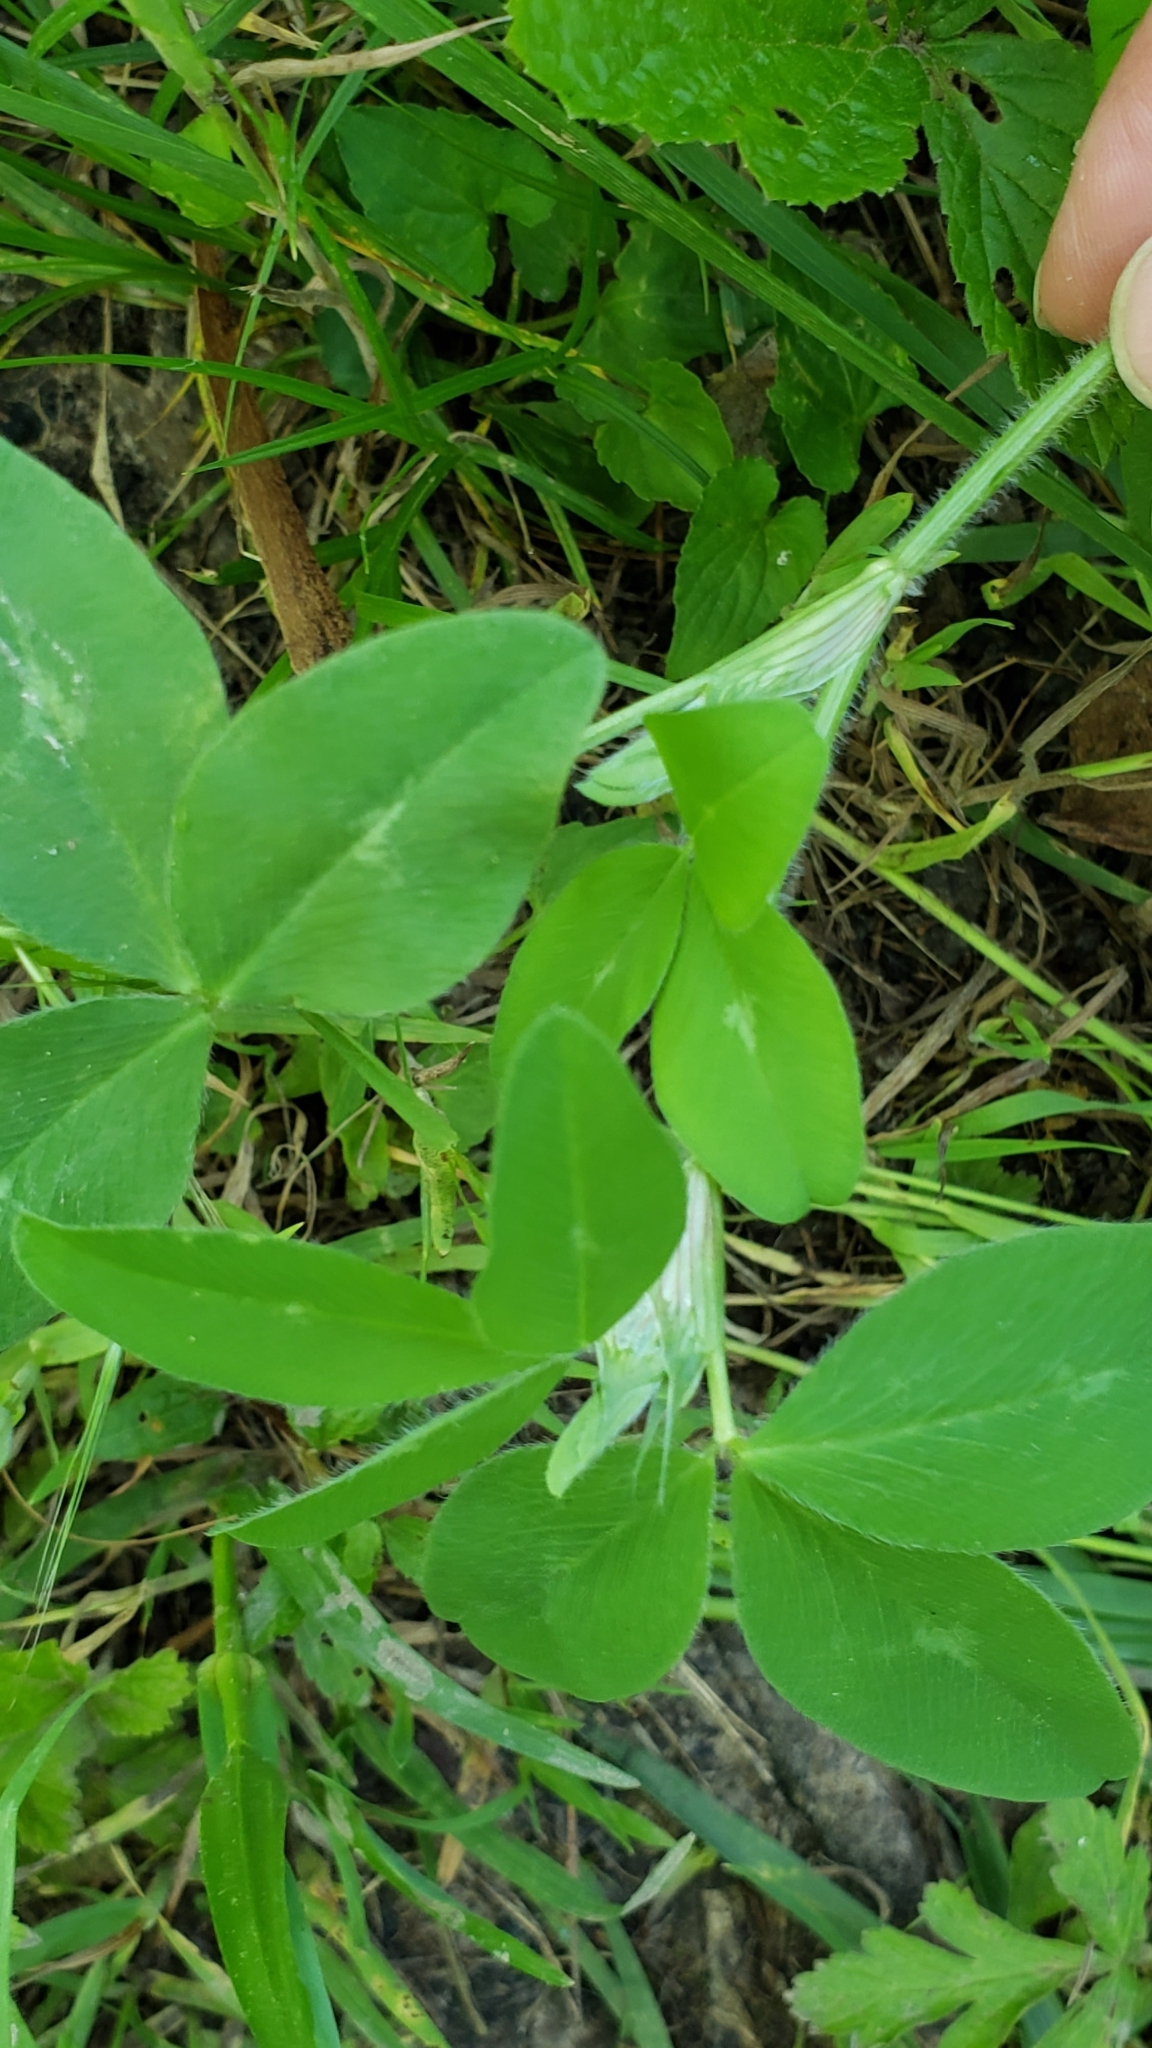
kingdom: Plantae
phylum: Tracheophyta
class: Magnoliopsida
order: Fabales
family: Fabaceae
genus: Trifolium
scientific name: Trifolium pratense
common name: Red clover
